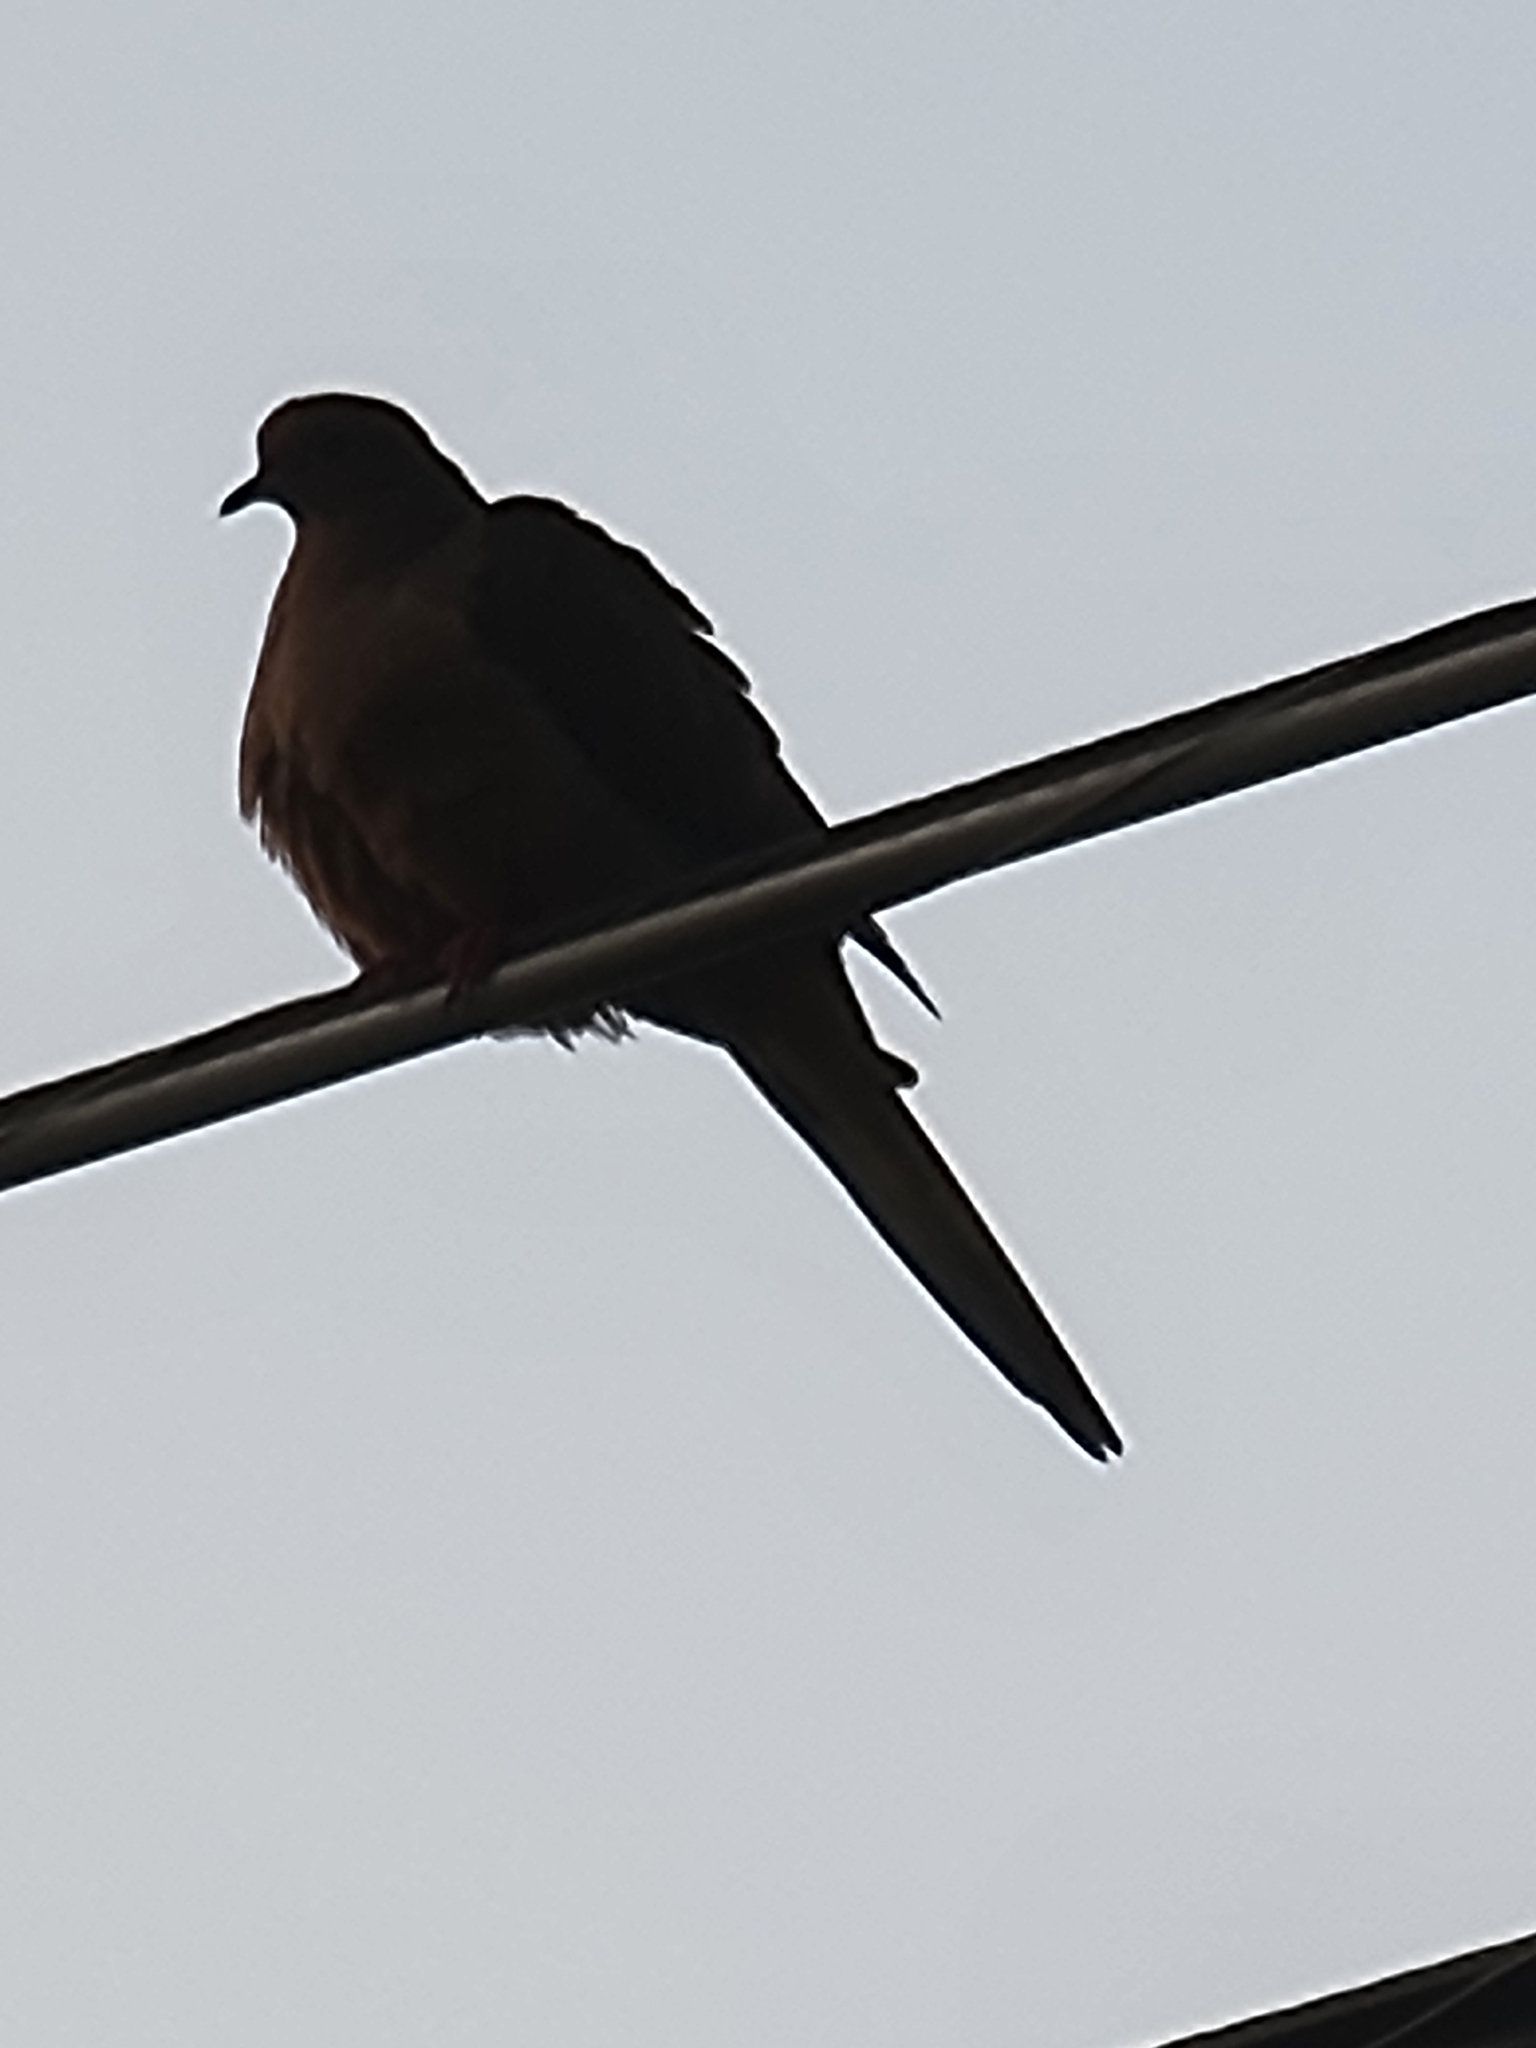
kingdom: Animalia
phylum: Chordata
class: Aves
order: Columbiformes
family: Columbidae
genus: Zenaida
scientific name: Zenaida macroura
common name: Mourning dove
